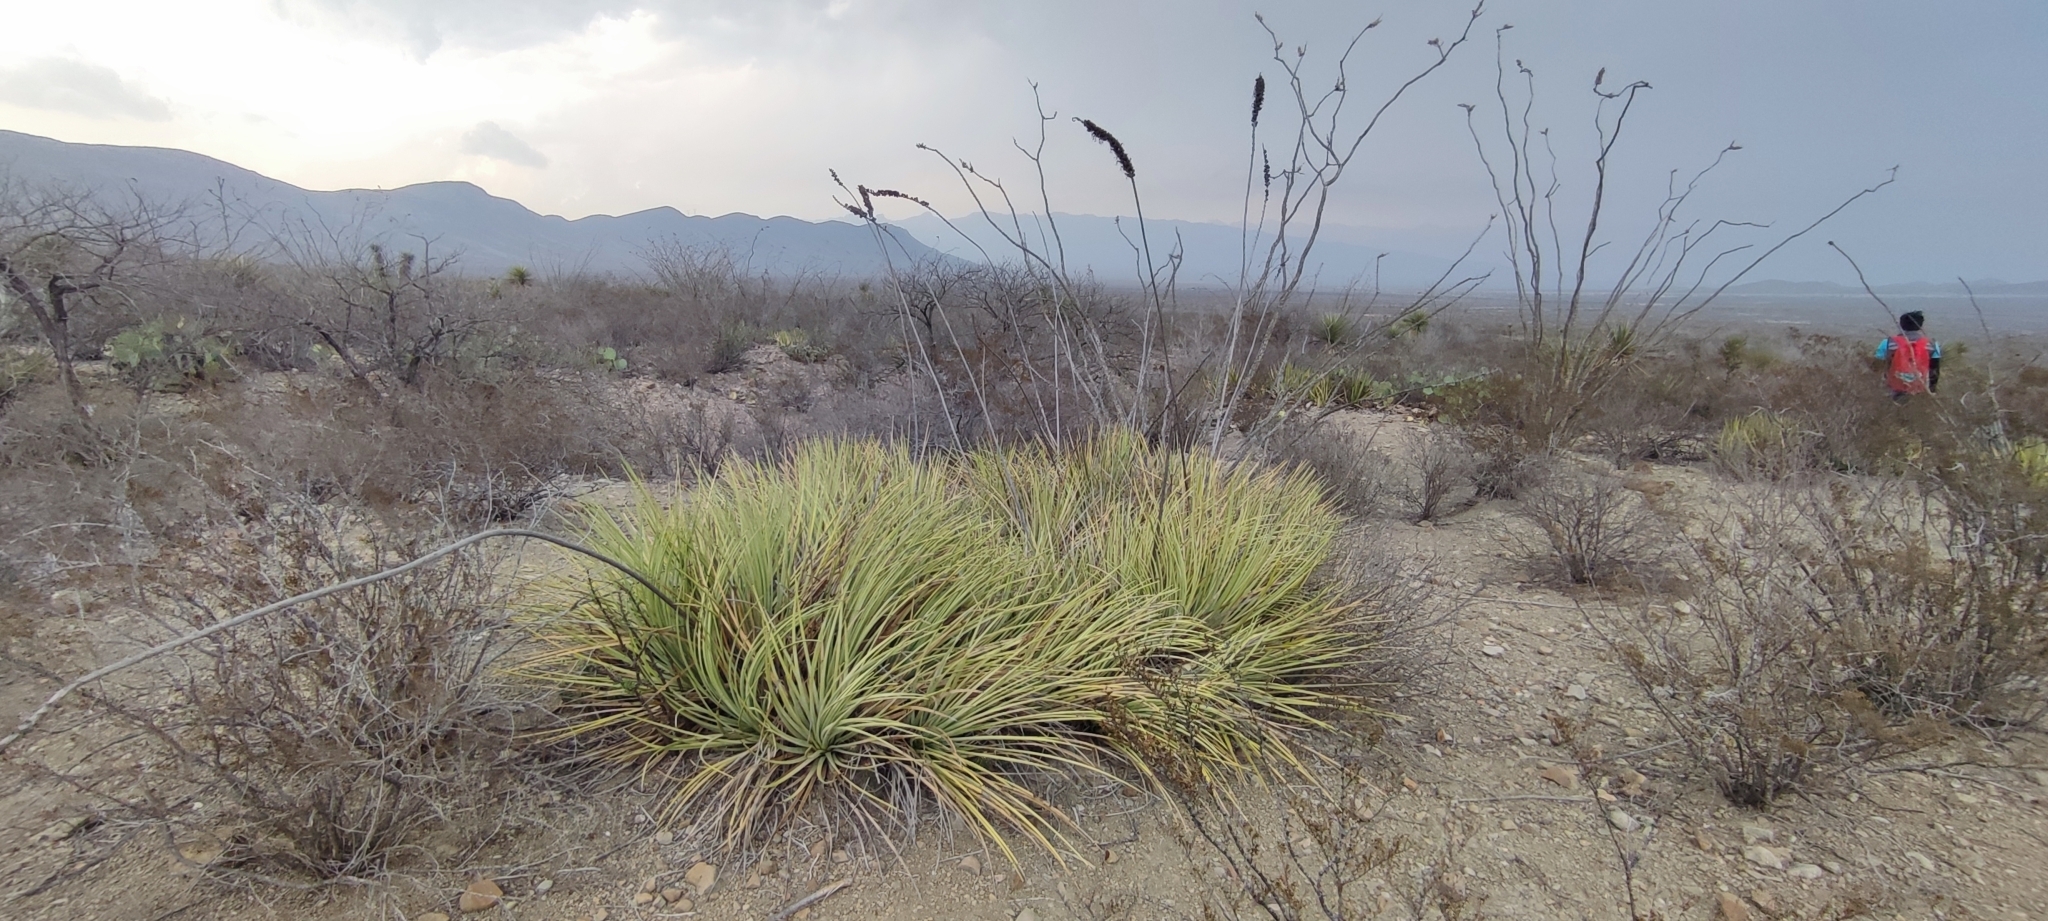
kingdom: Plantae
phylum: Tracheophyta
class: Liliopsida
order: Asparagales
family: Asparagaceae
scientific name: Asparagaceae
